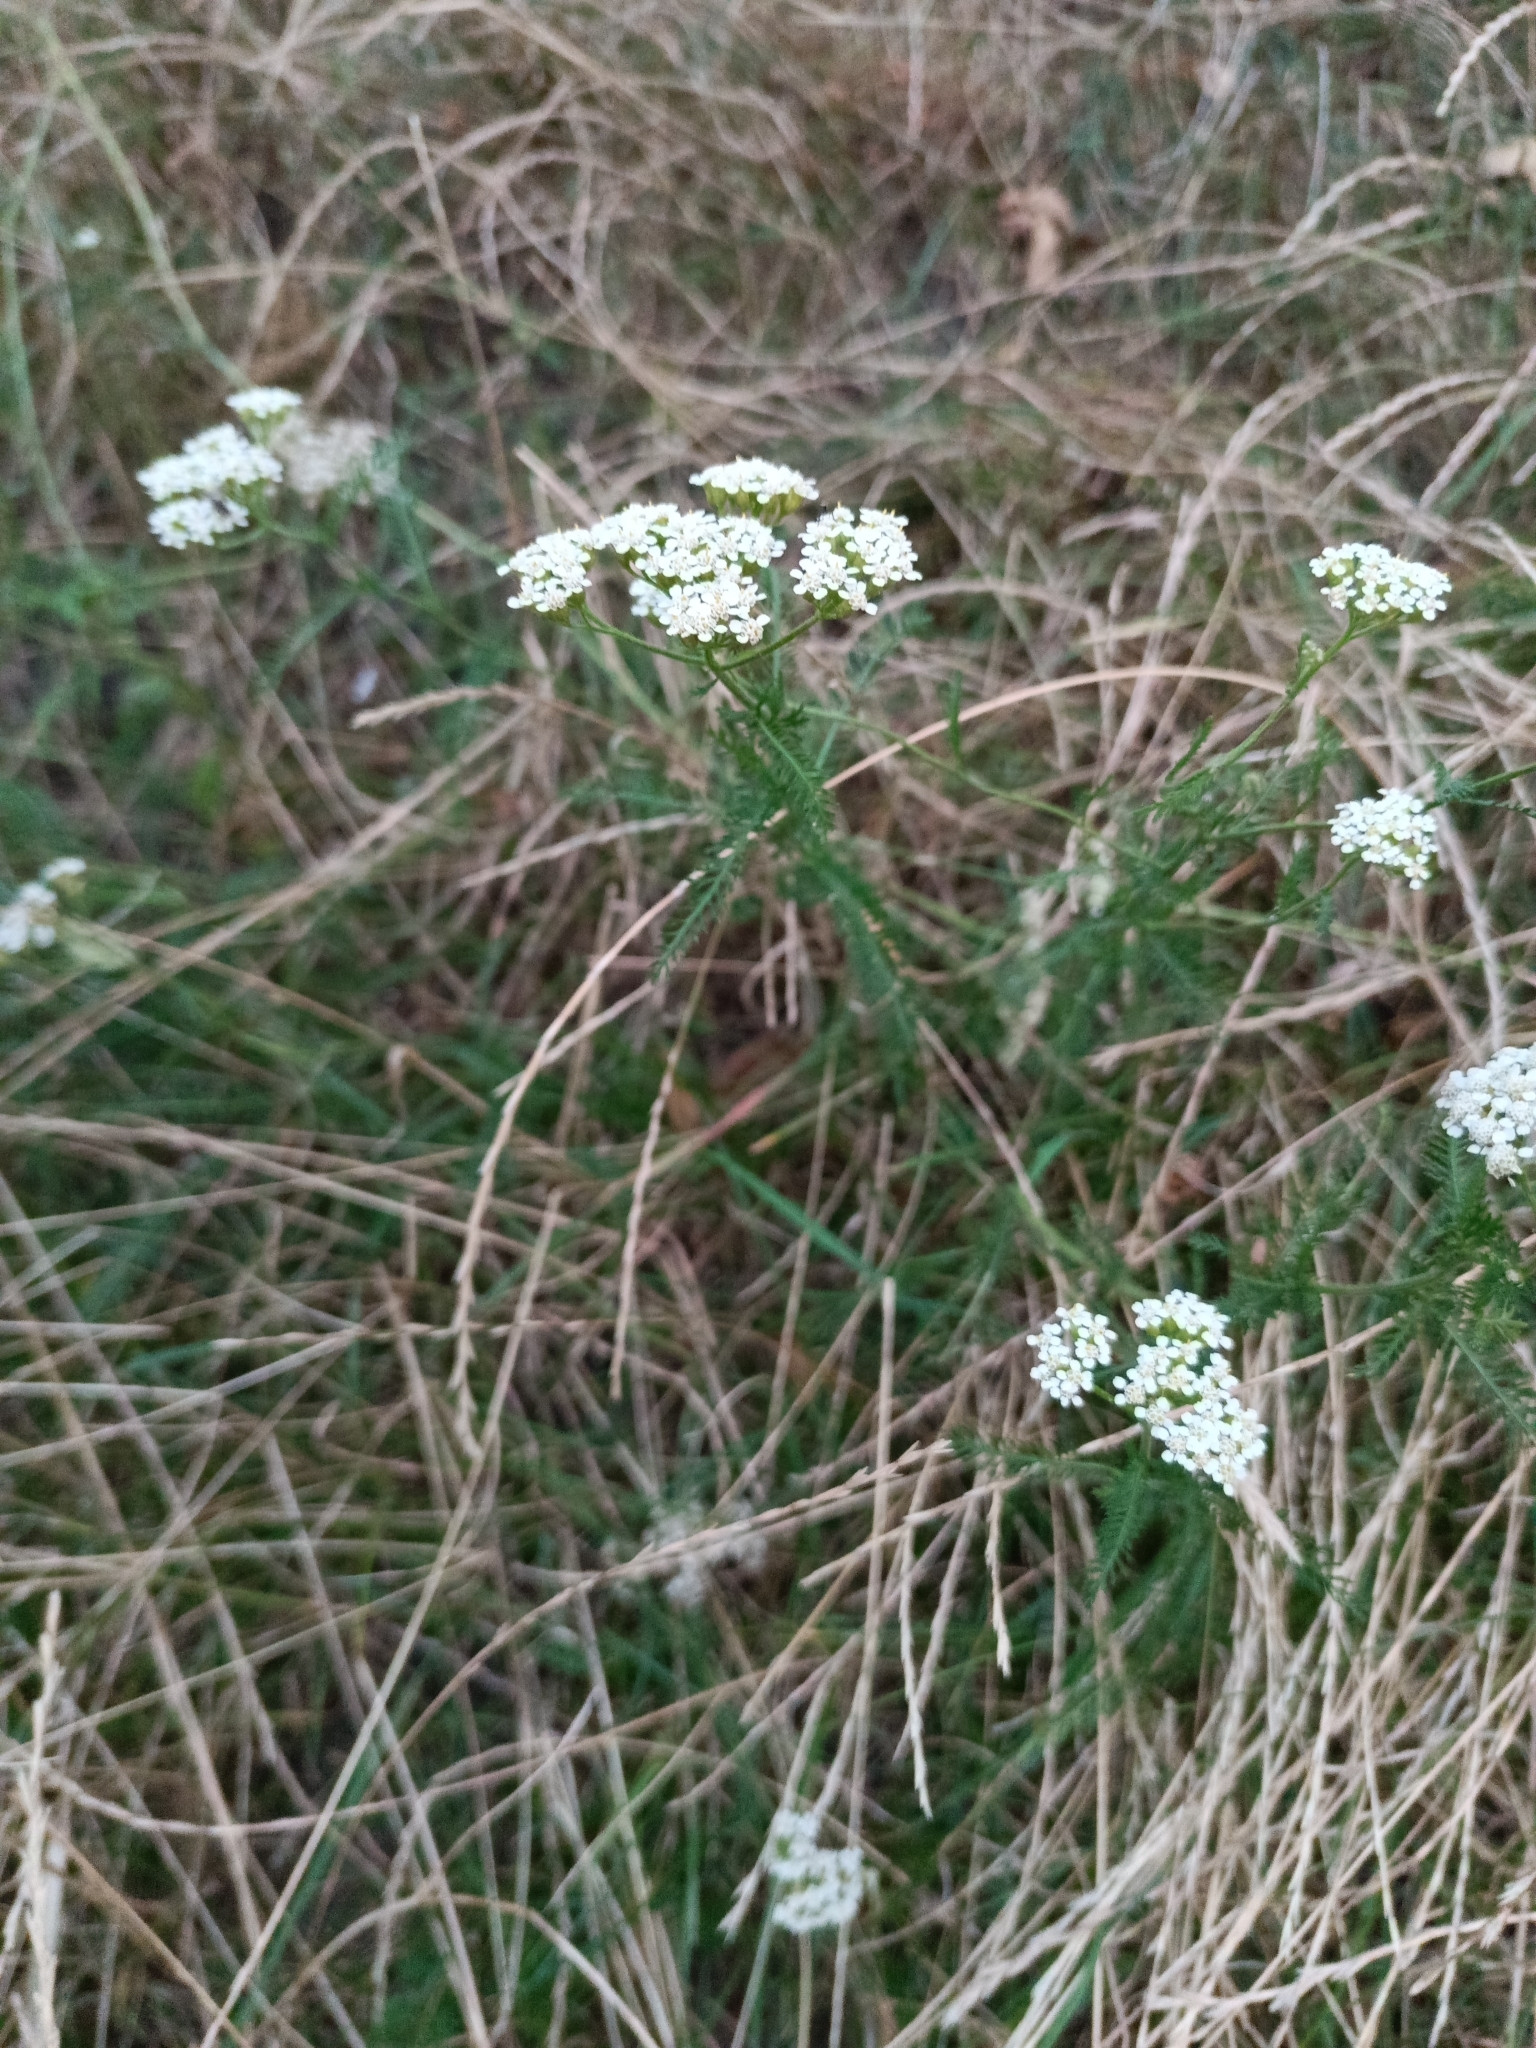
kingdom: Plantae
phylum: Tracheophyta
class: Magnoliopsida
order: Asterales
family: Asteraceae
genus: Achillea
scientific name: Achillea millefolium
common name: Yarrow
